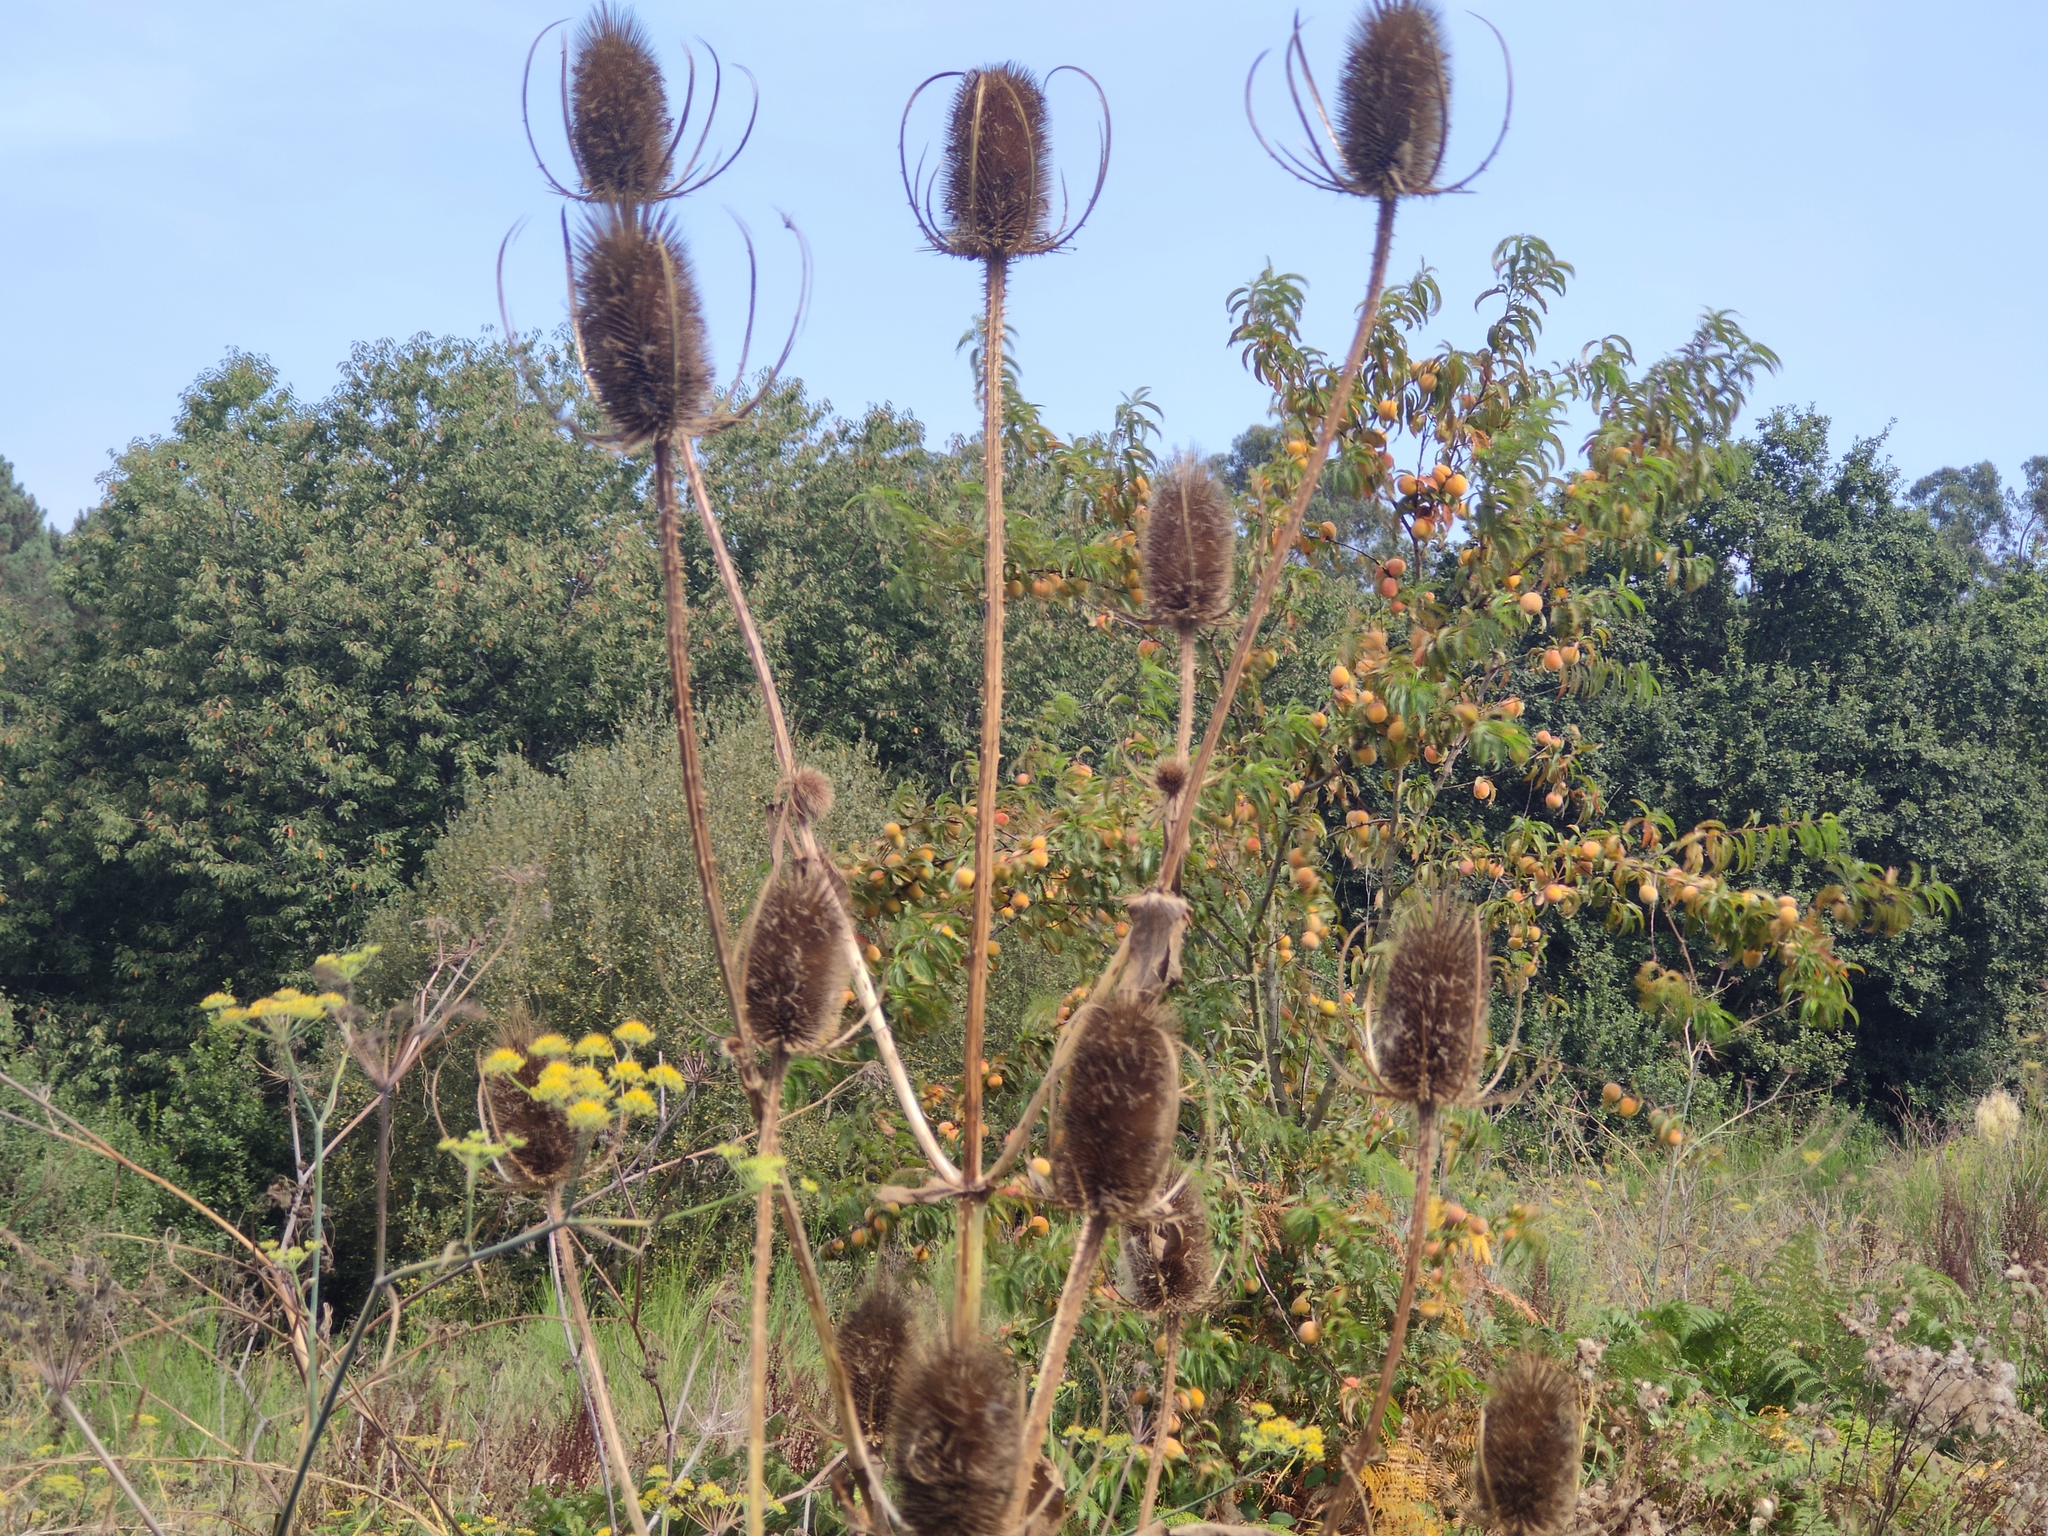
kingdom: Plantae
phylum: Tracheophyta
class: Magnoliopsida
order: Dipsacales
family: Caprifoliaceae
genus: Dipsacus
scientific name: Dipsacus fullonum
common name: Teasel
